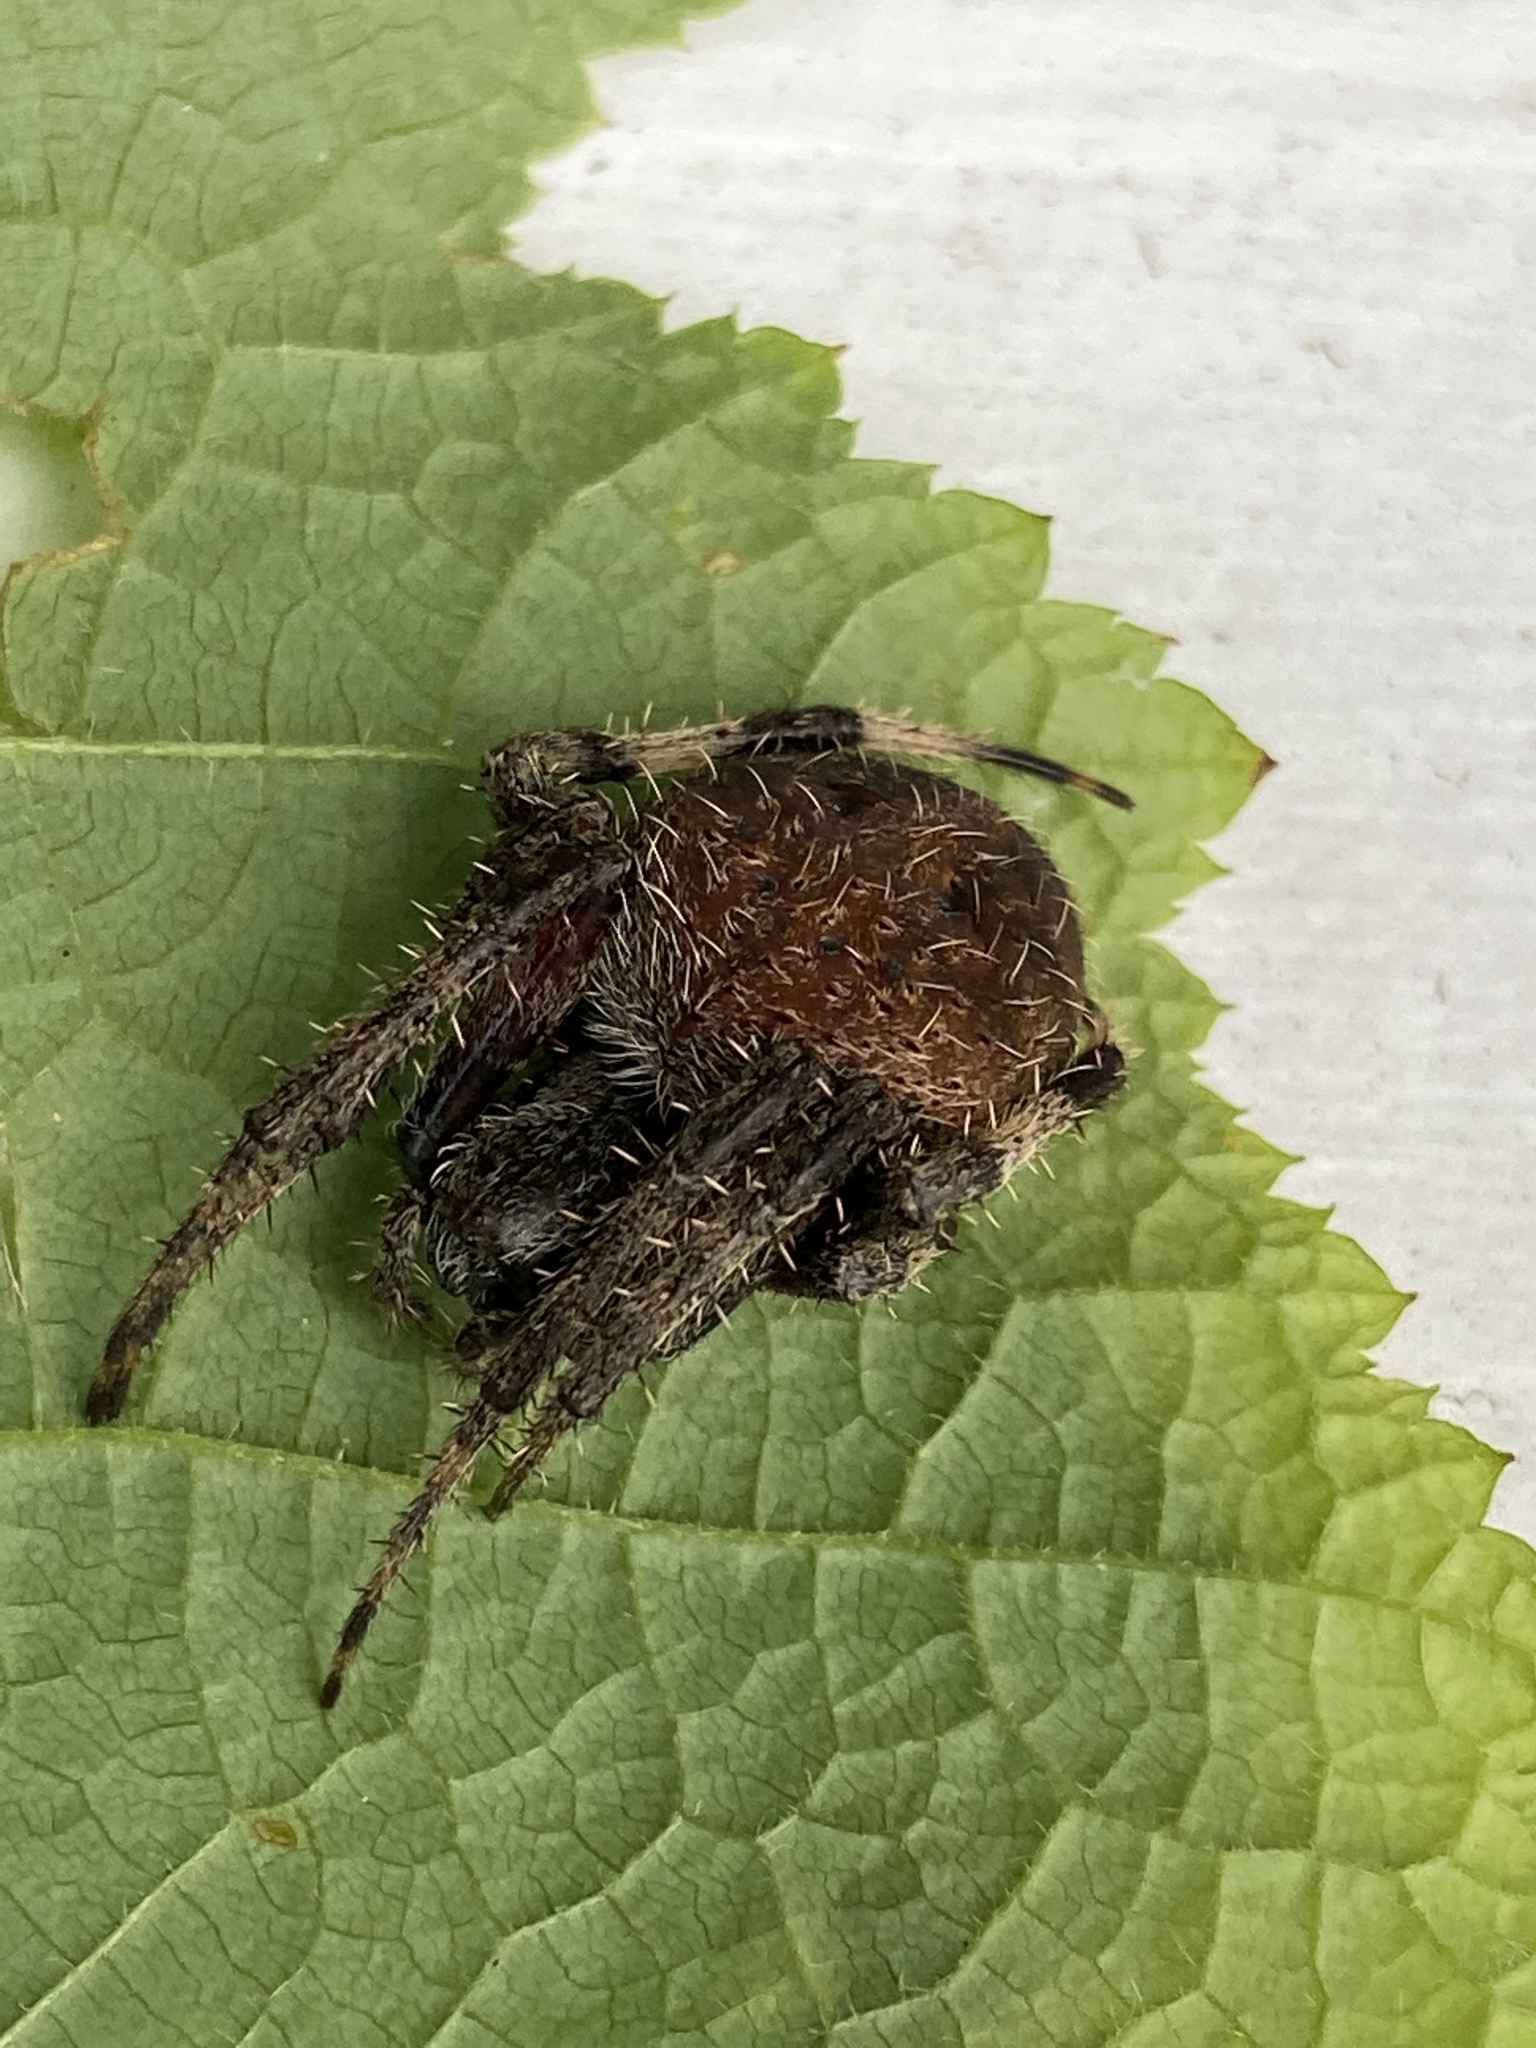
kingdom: Animalia
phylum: Arthropoda
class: Arachnida
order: Araneae
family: Araneidae
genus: Neoscona
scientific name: Neoscona crucifera
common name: Spotted orbweaver
